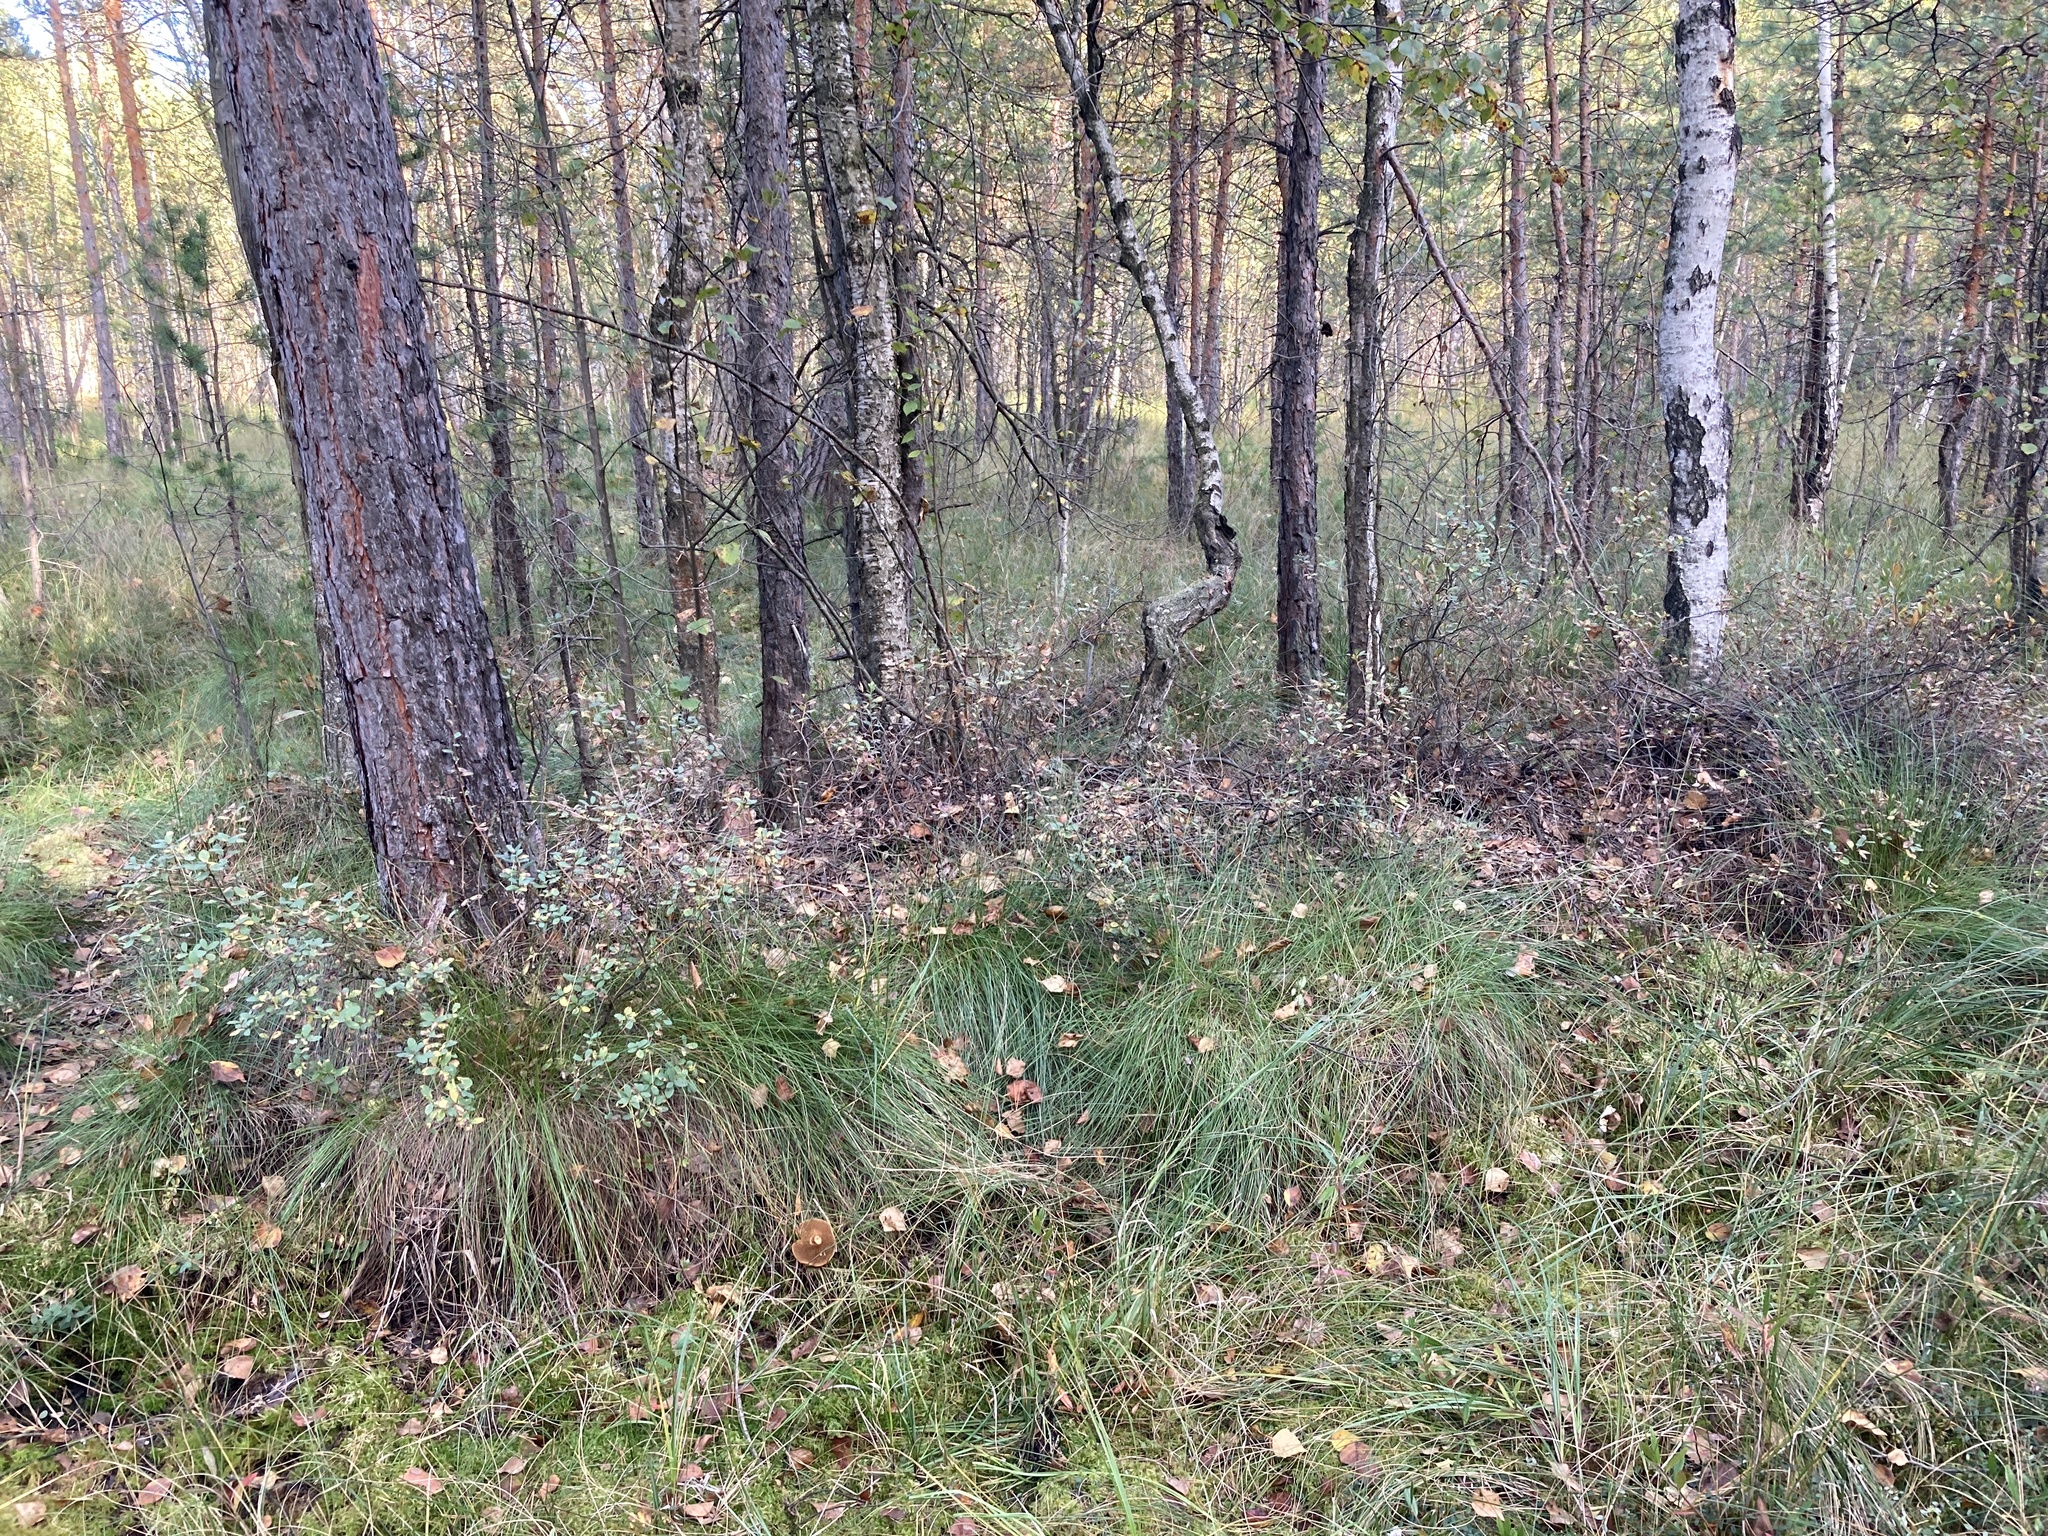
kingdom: Plantae
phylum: Tracheophyta
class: Magnoliopsida
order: Ericales
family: Ericaceae
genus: Vaccinium
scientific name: Vaccinium uliginosum
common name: Bog bilberry
